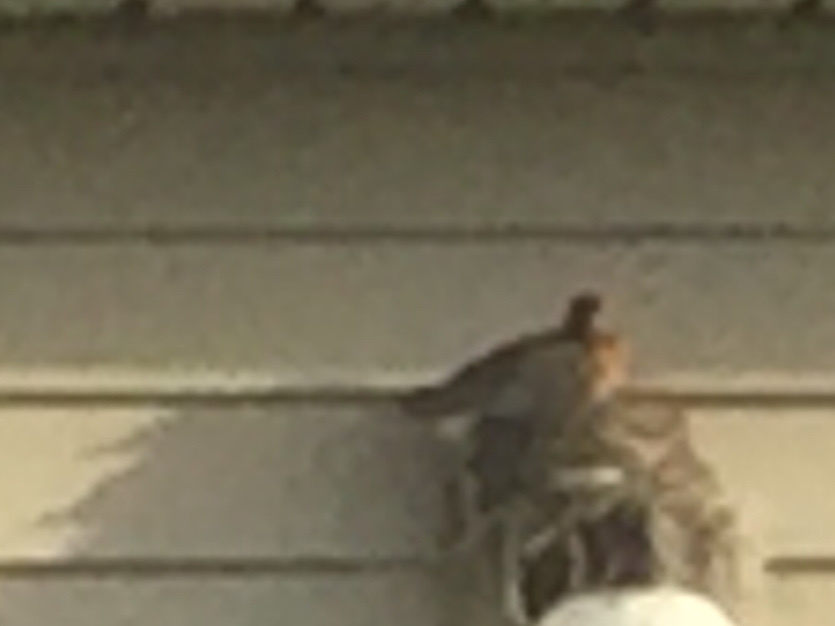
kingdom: Animalia
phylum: Chordata
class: Aves
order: Passeriformes
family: Turdidae
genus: Turdus
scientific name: Turdus migratorius
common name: American robin
